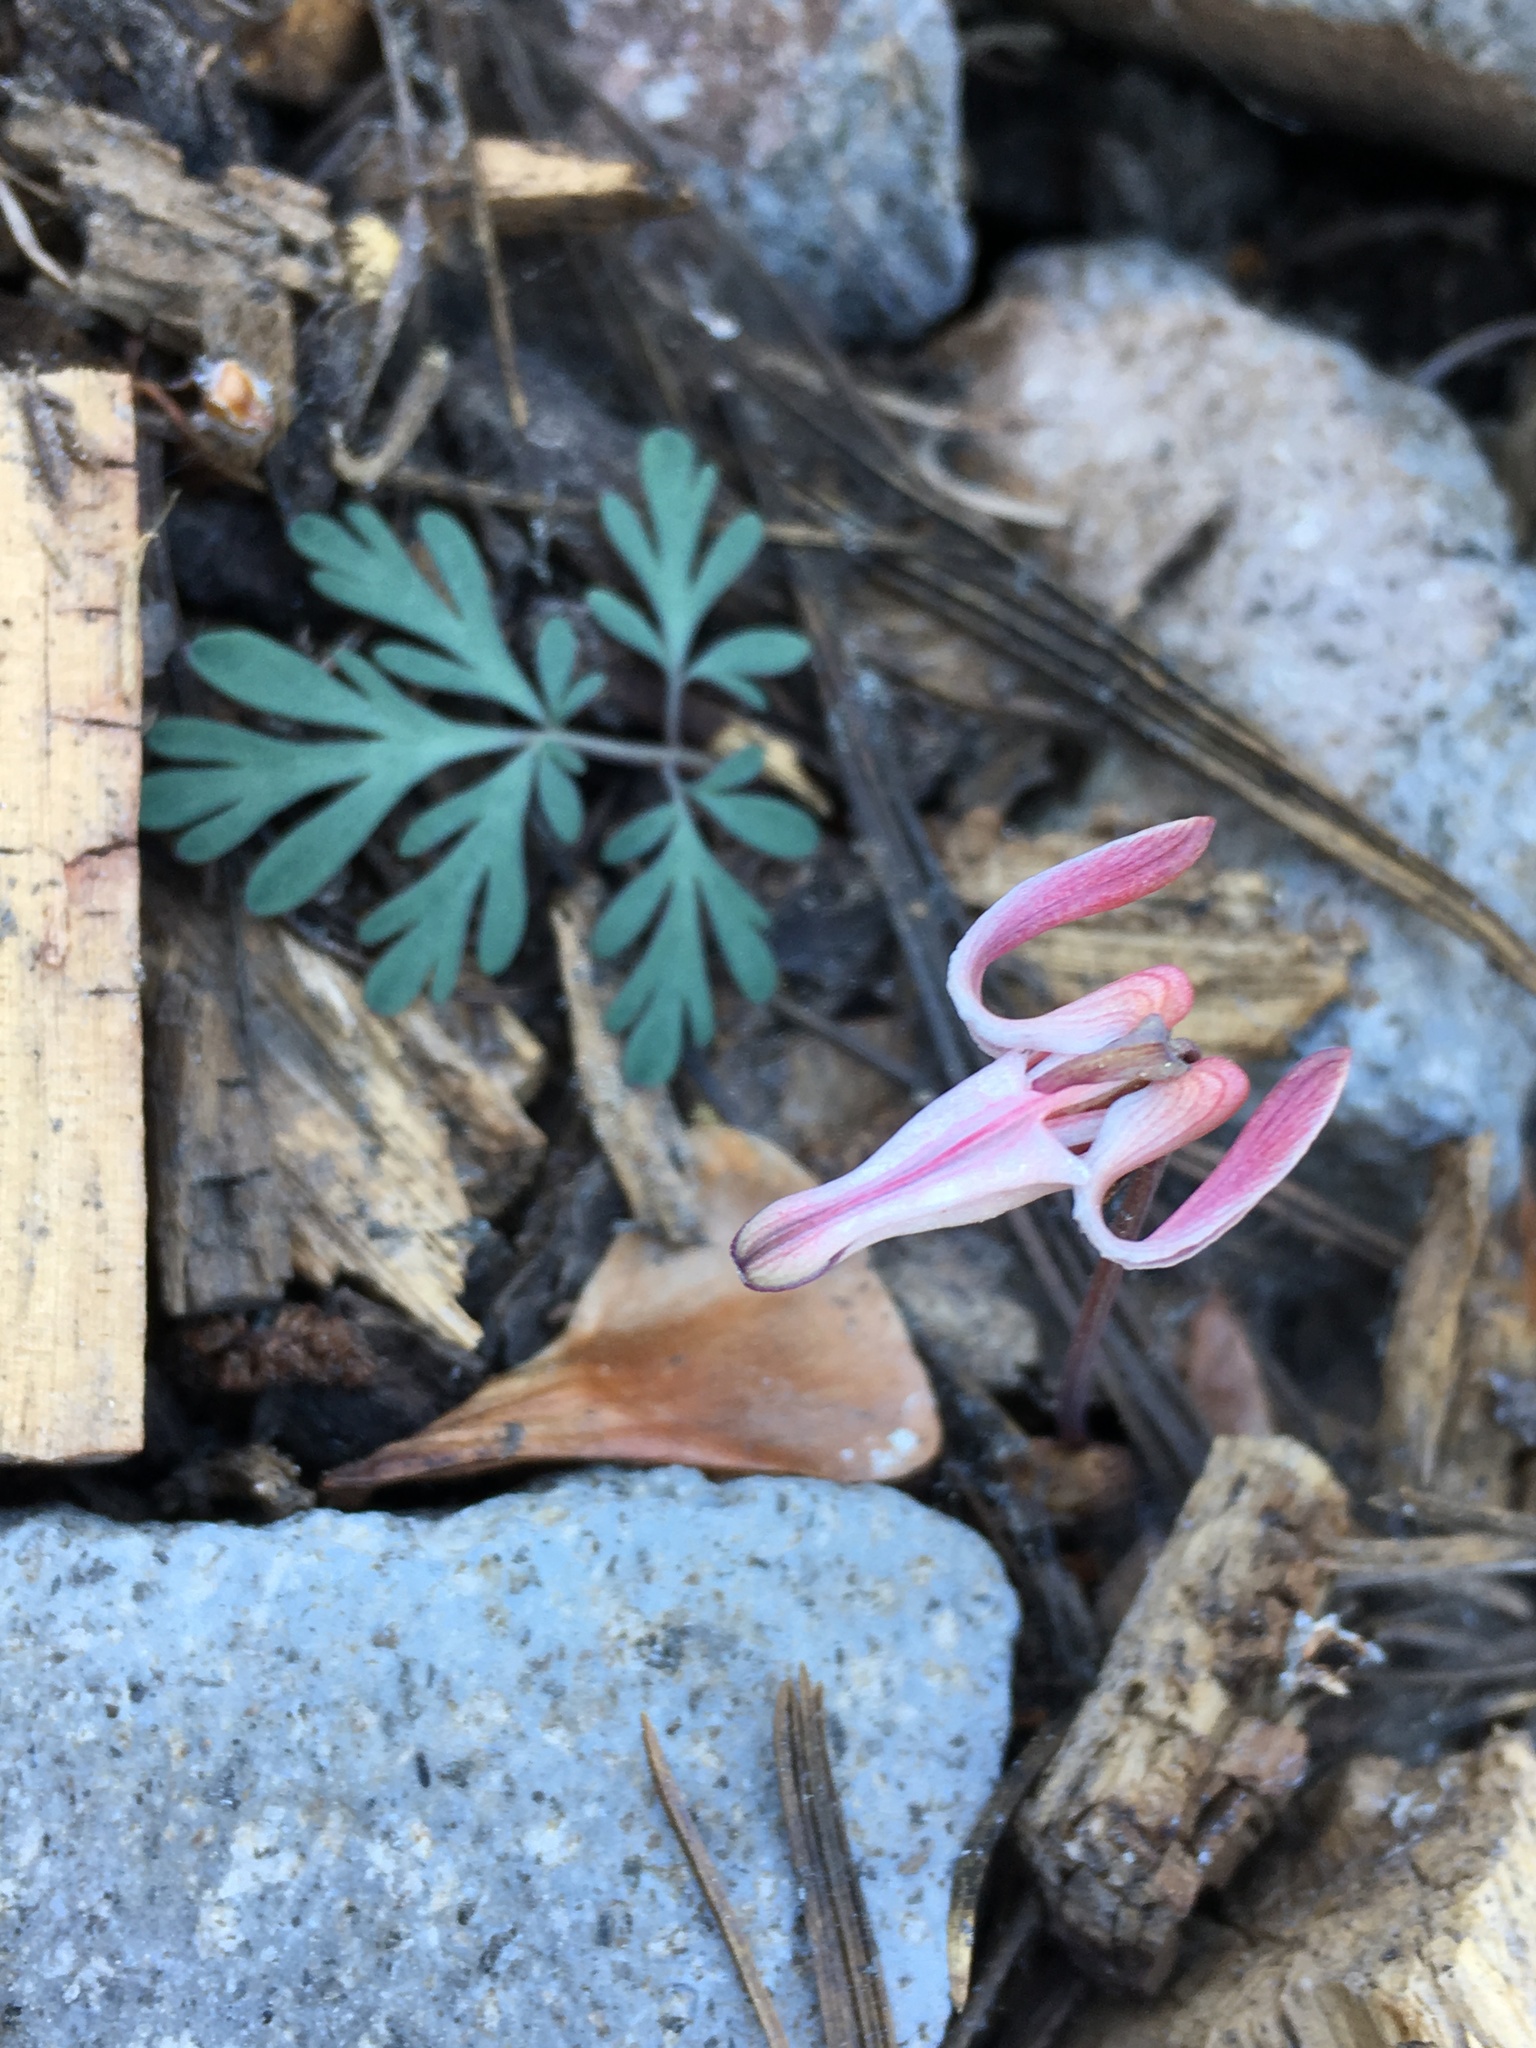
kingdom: Plantae
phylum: Tracheophyta
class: Magnoliopsida
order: Ranunculales
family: Papaveraceae
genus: Dicentra
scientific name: Dicentra uniflora
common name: Steer's-head
